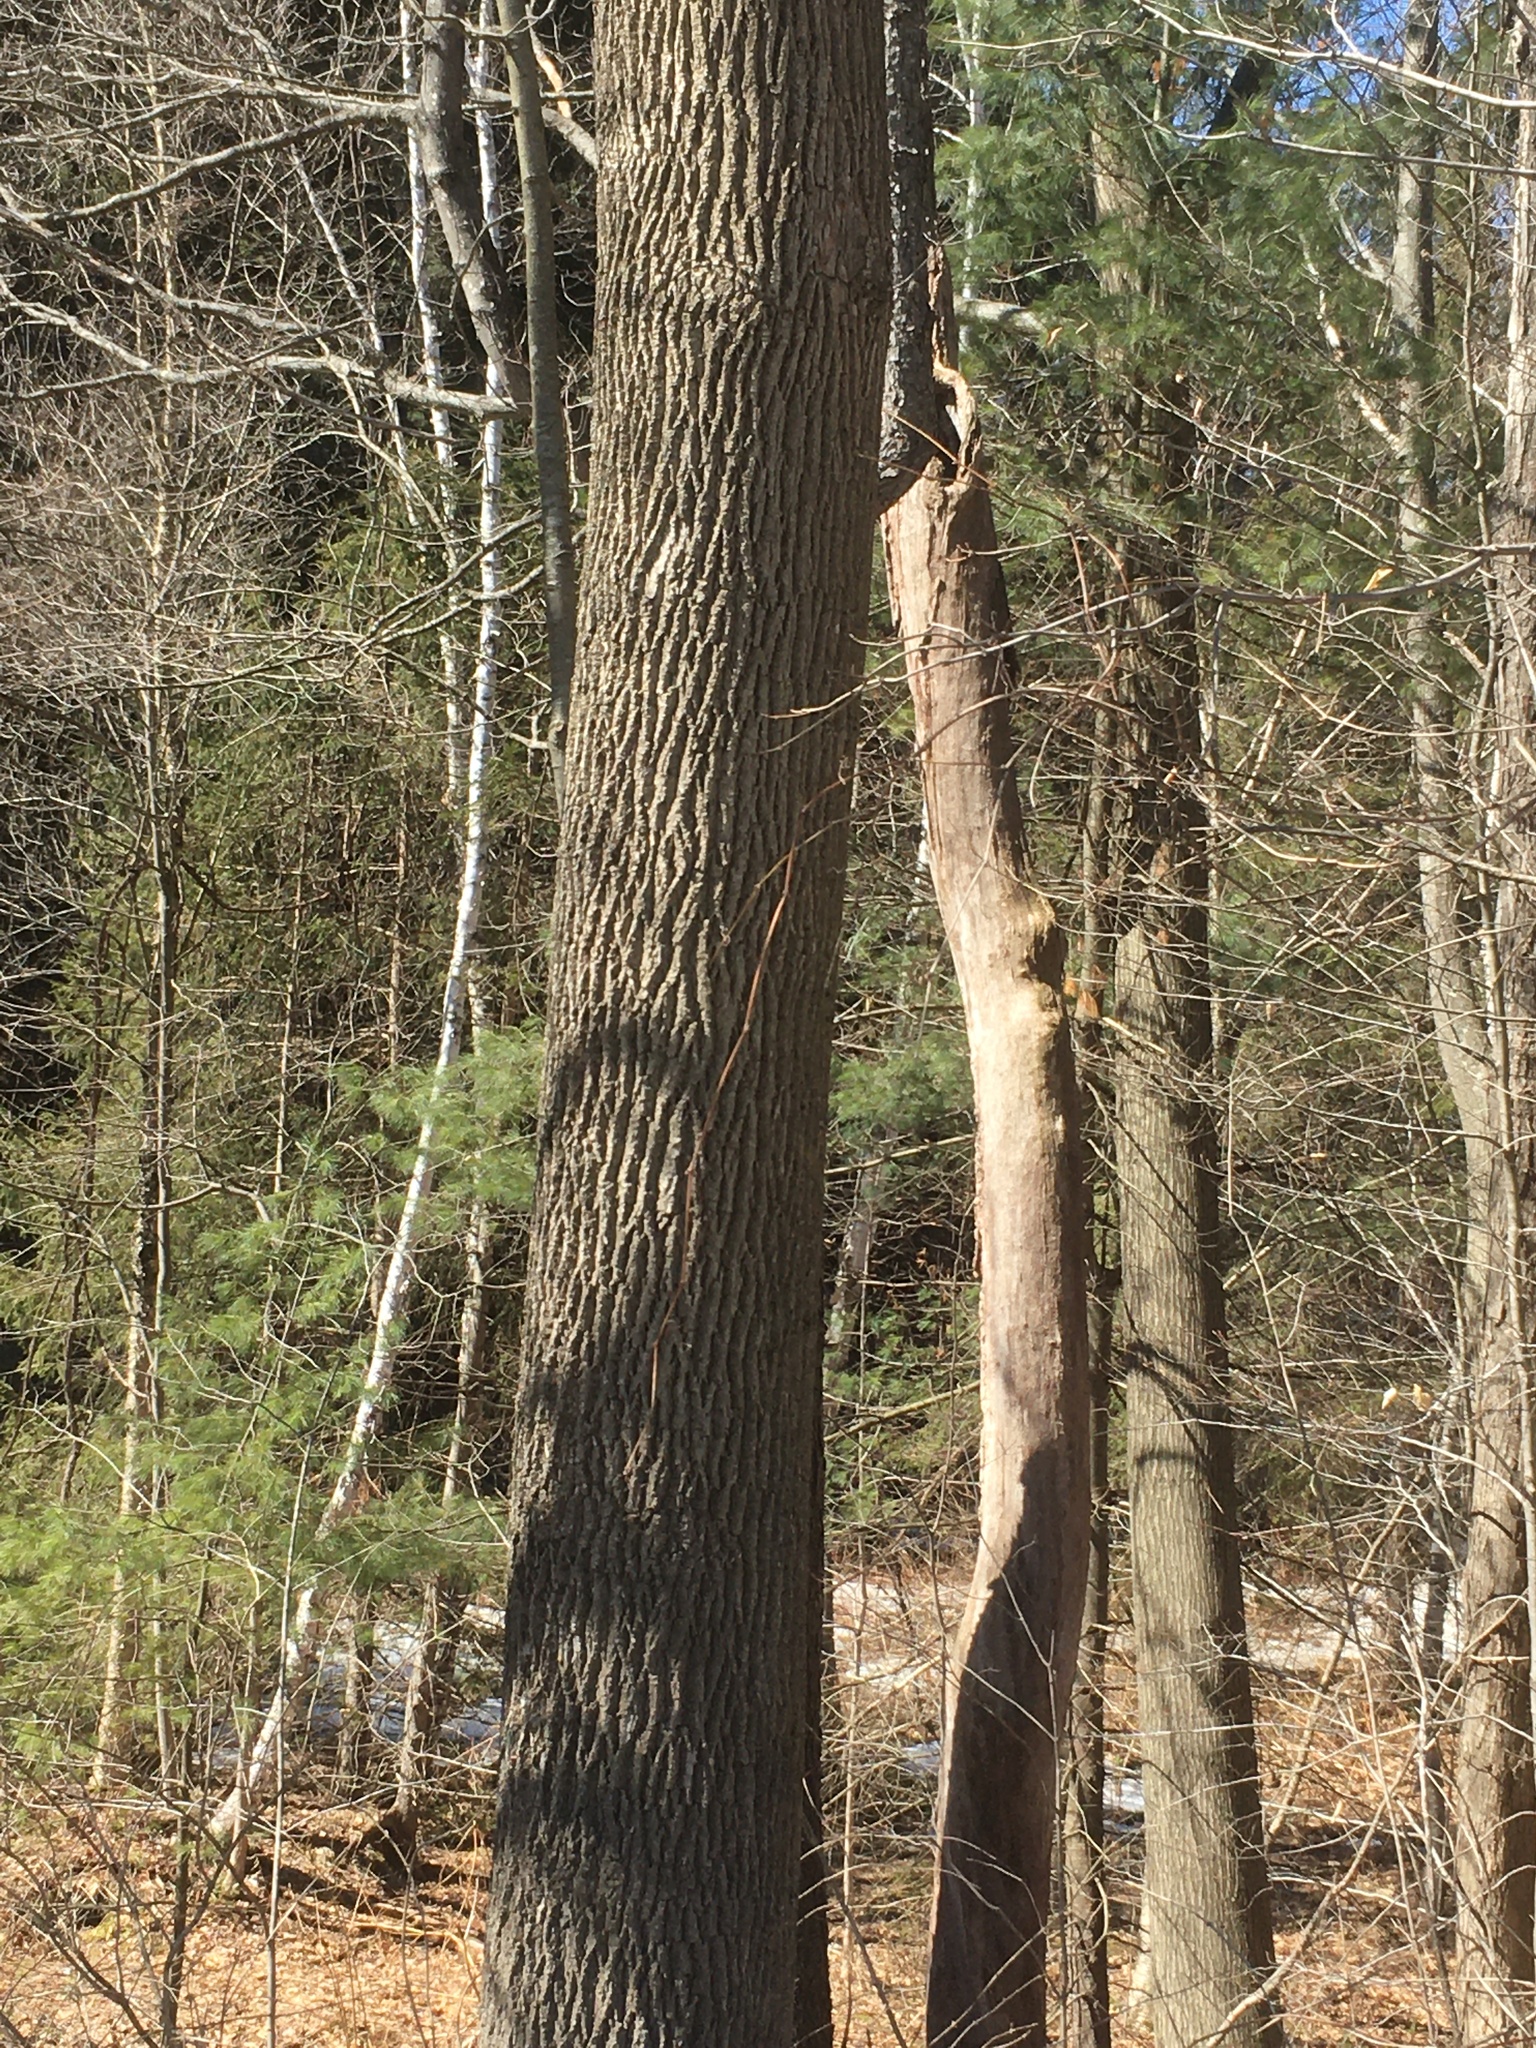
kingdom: Plantae
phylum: Tracheophyta
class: Magnoliopsida
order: Lamiales
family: Oleaceae
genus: Fraxinus
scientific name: Fraxinus americana
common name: White ash
